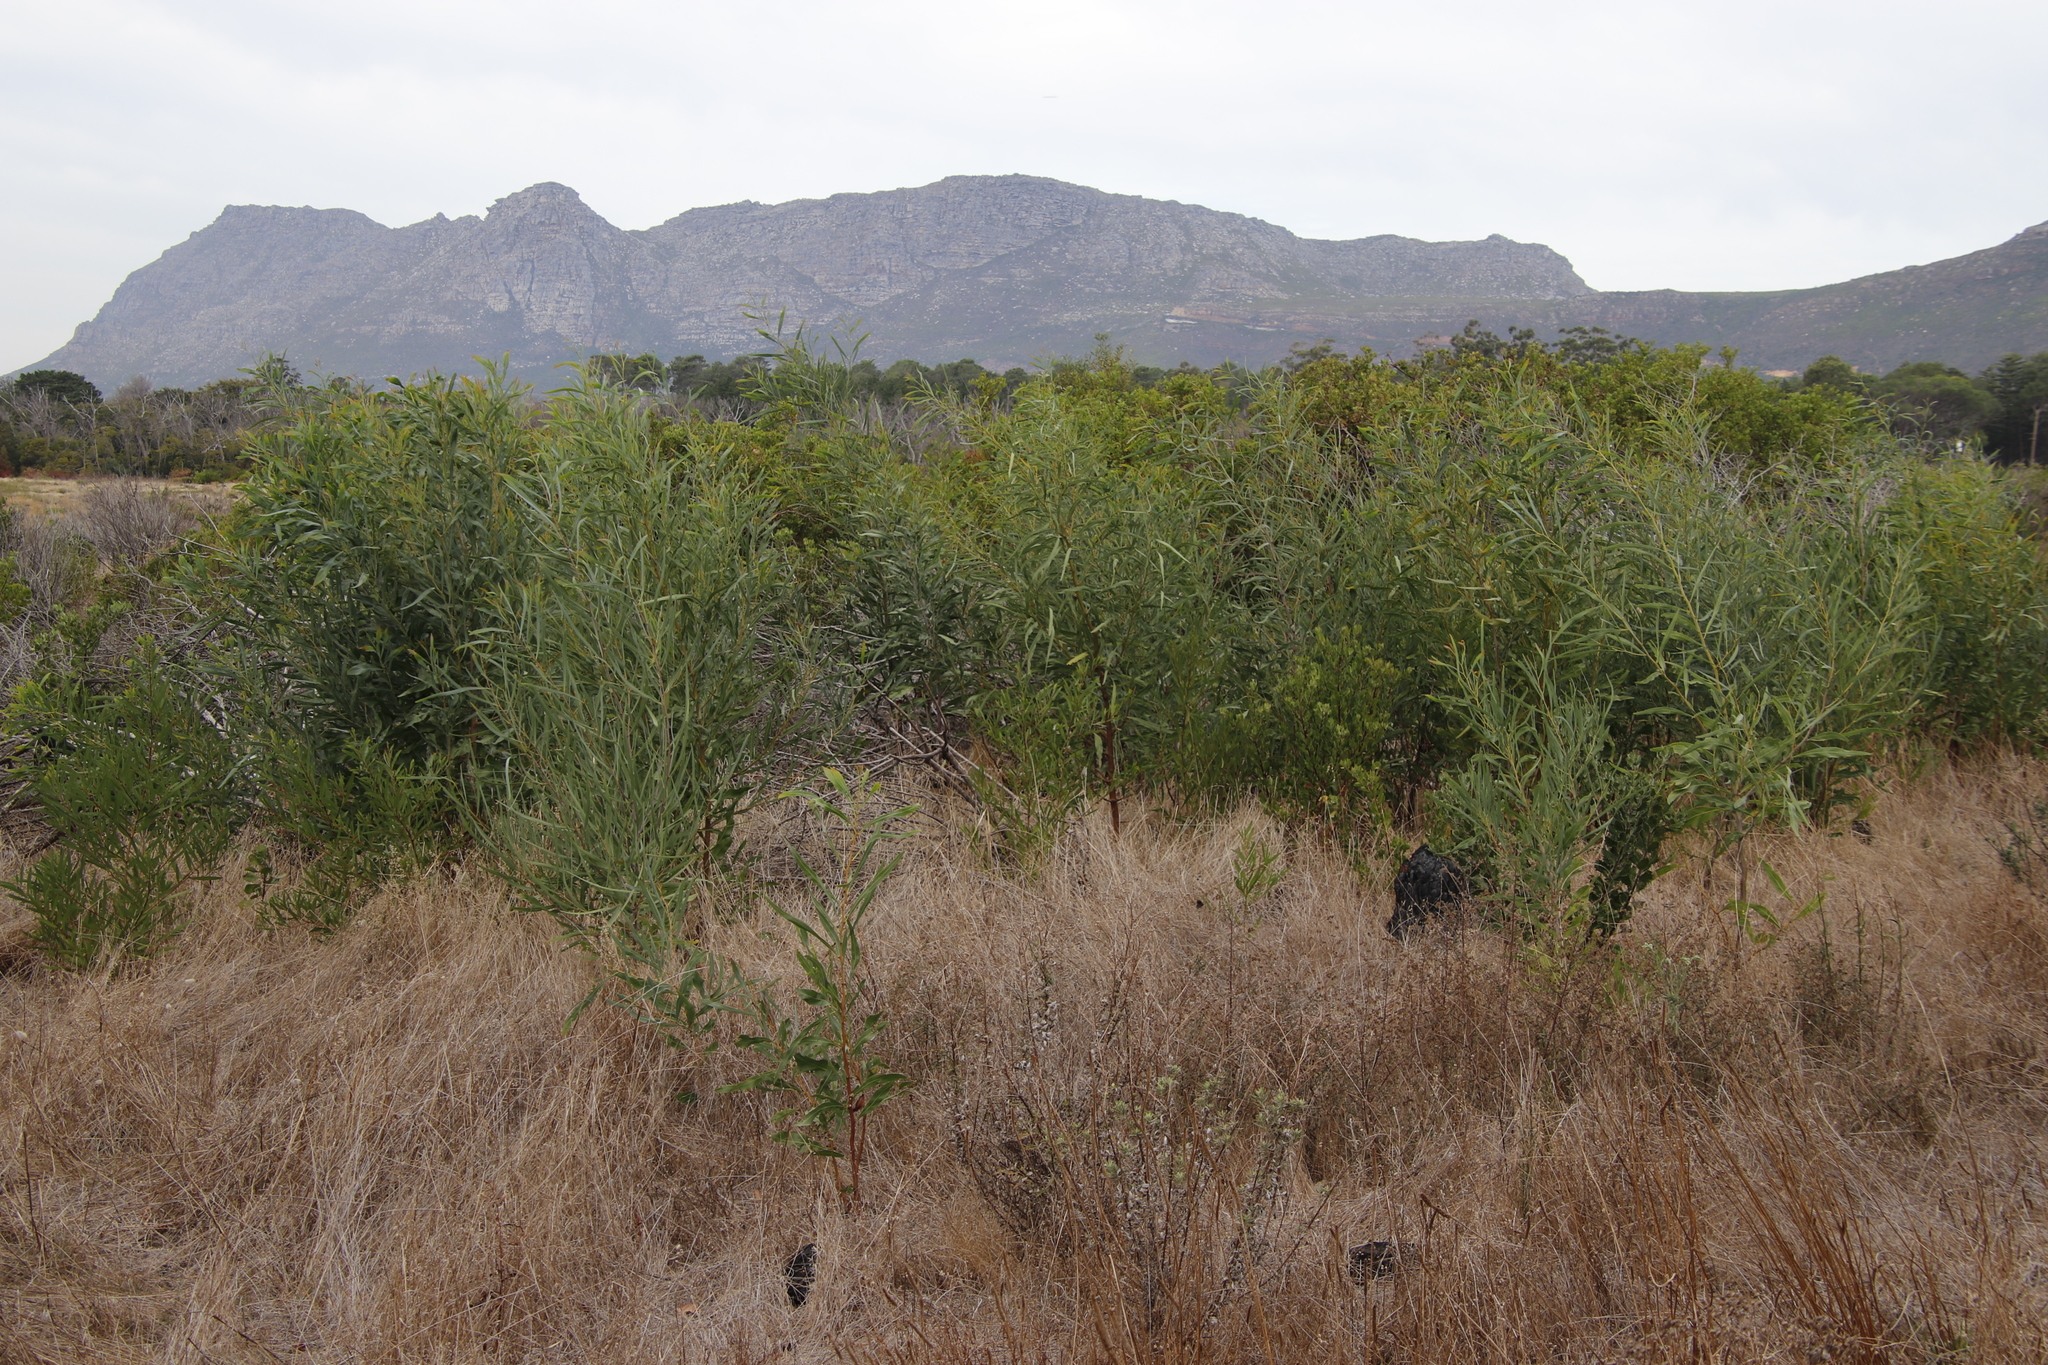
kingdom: Plantae
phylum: Tracheophyta
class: Magnoliopsida
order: Fabales
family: Fabaceae
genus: Acacia
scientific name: Acacia saligna
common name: Orange wattle
